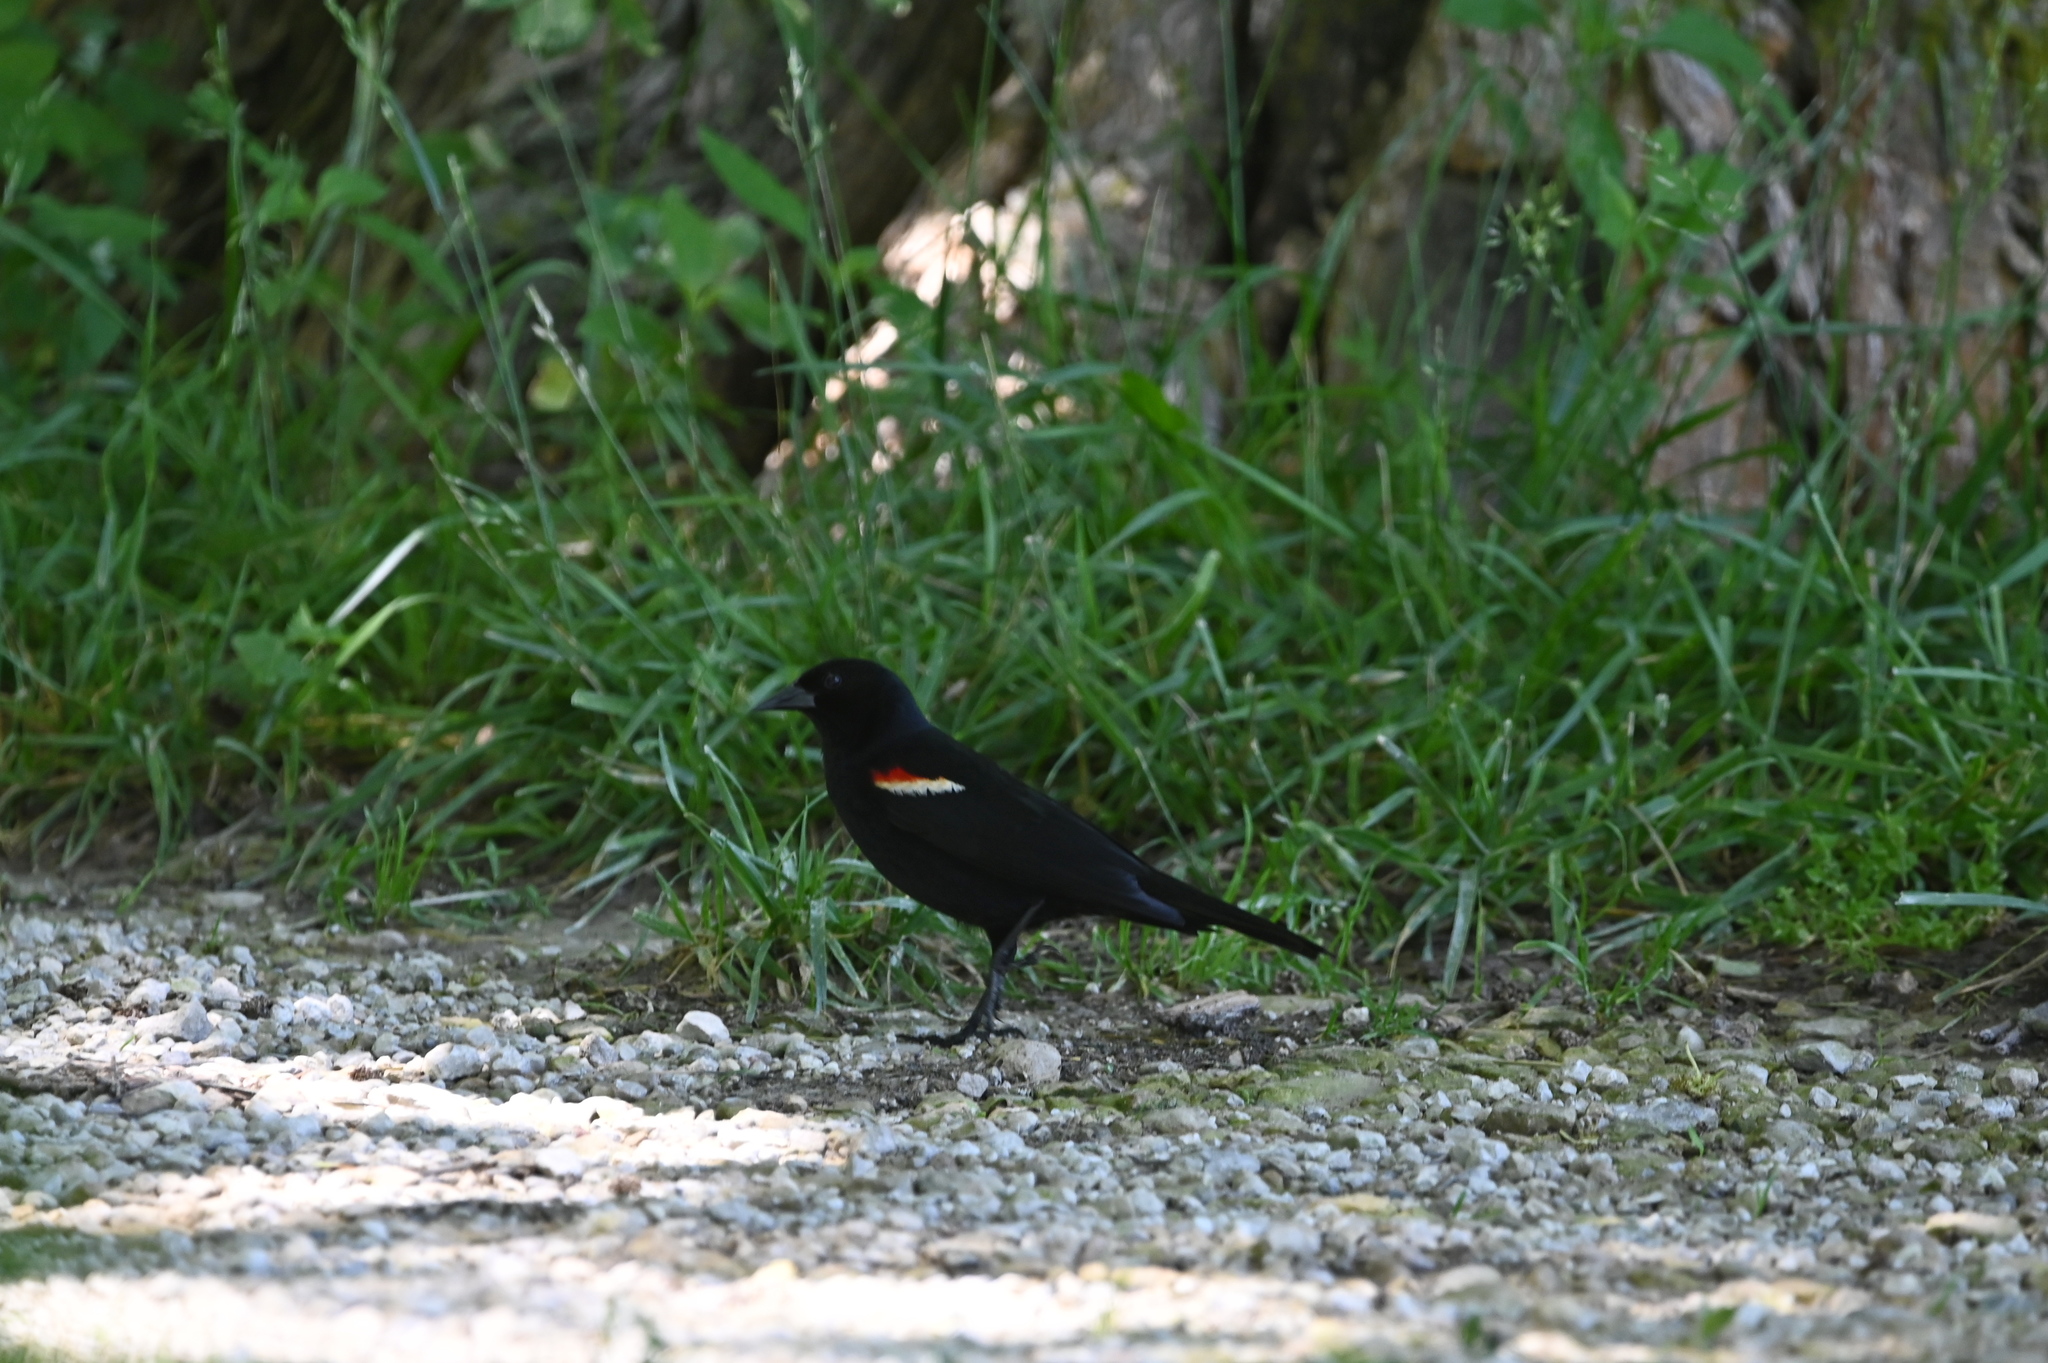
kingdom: Animalia
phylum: Chordata
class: Aves
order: Passeriformes
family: Icteridae
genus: Agelaius
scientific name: Agelaius phoeniceus
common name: Red-winged blackbird
